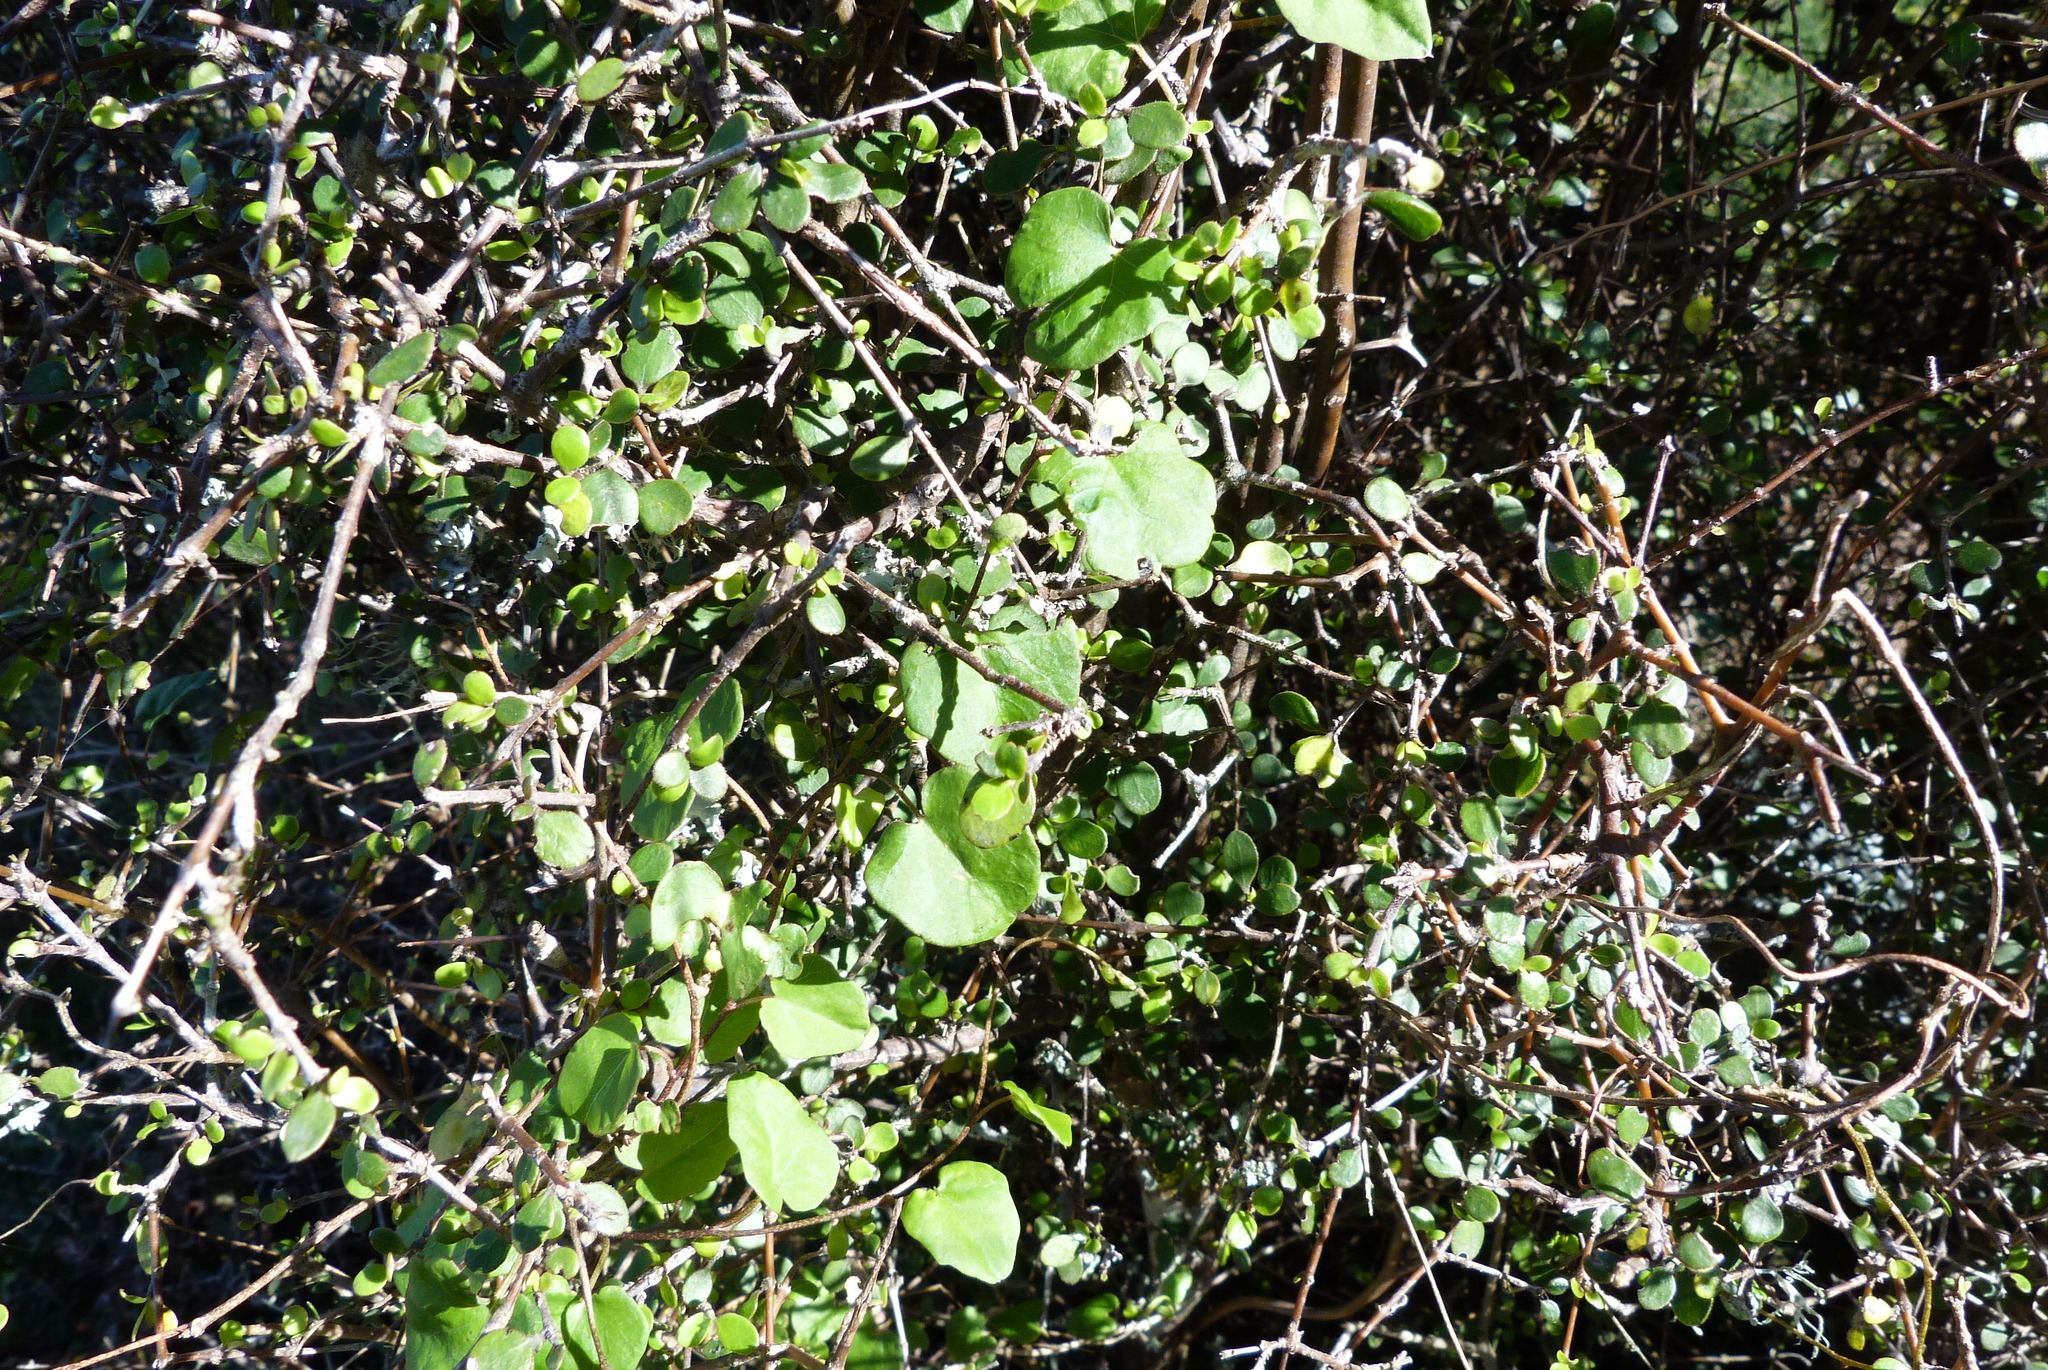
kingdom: Plantae
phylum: Tracheophyta
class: Magnoliopsida
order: Solanales
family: Convolvulaceae
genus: Calystegia
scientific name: Calystegia tuguriorum
